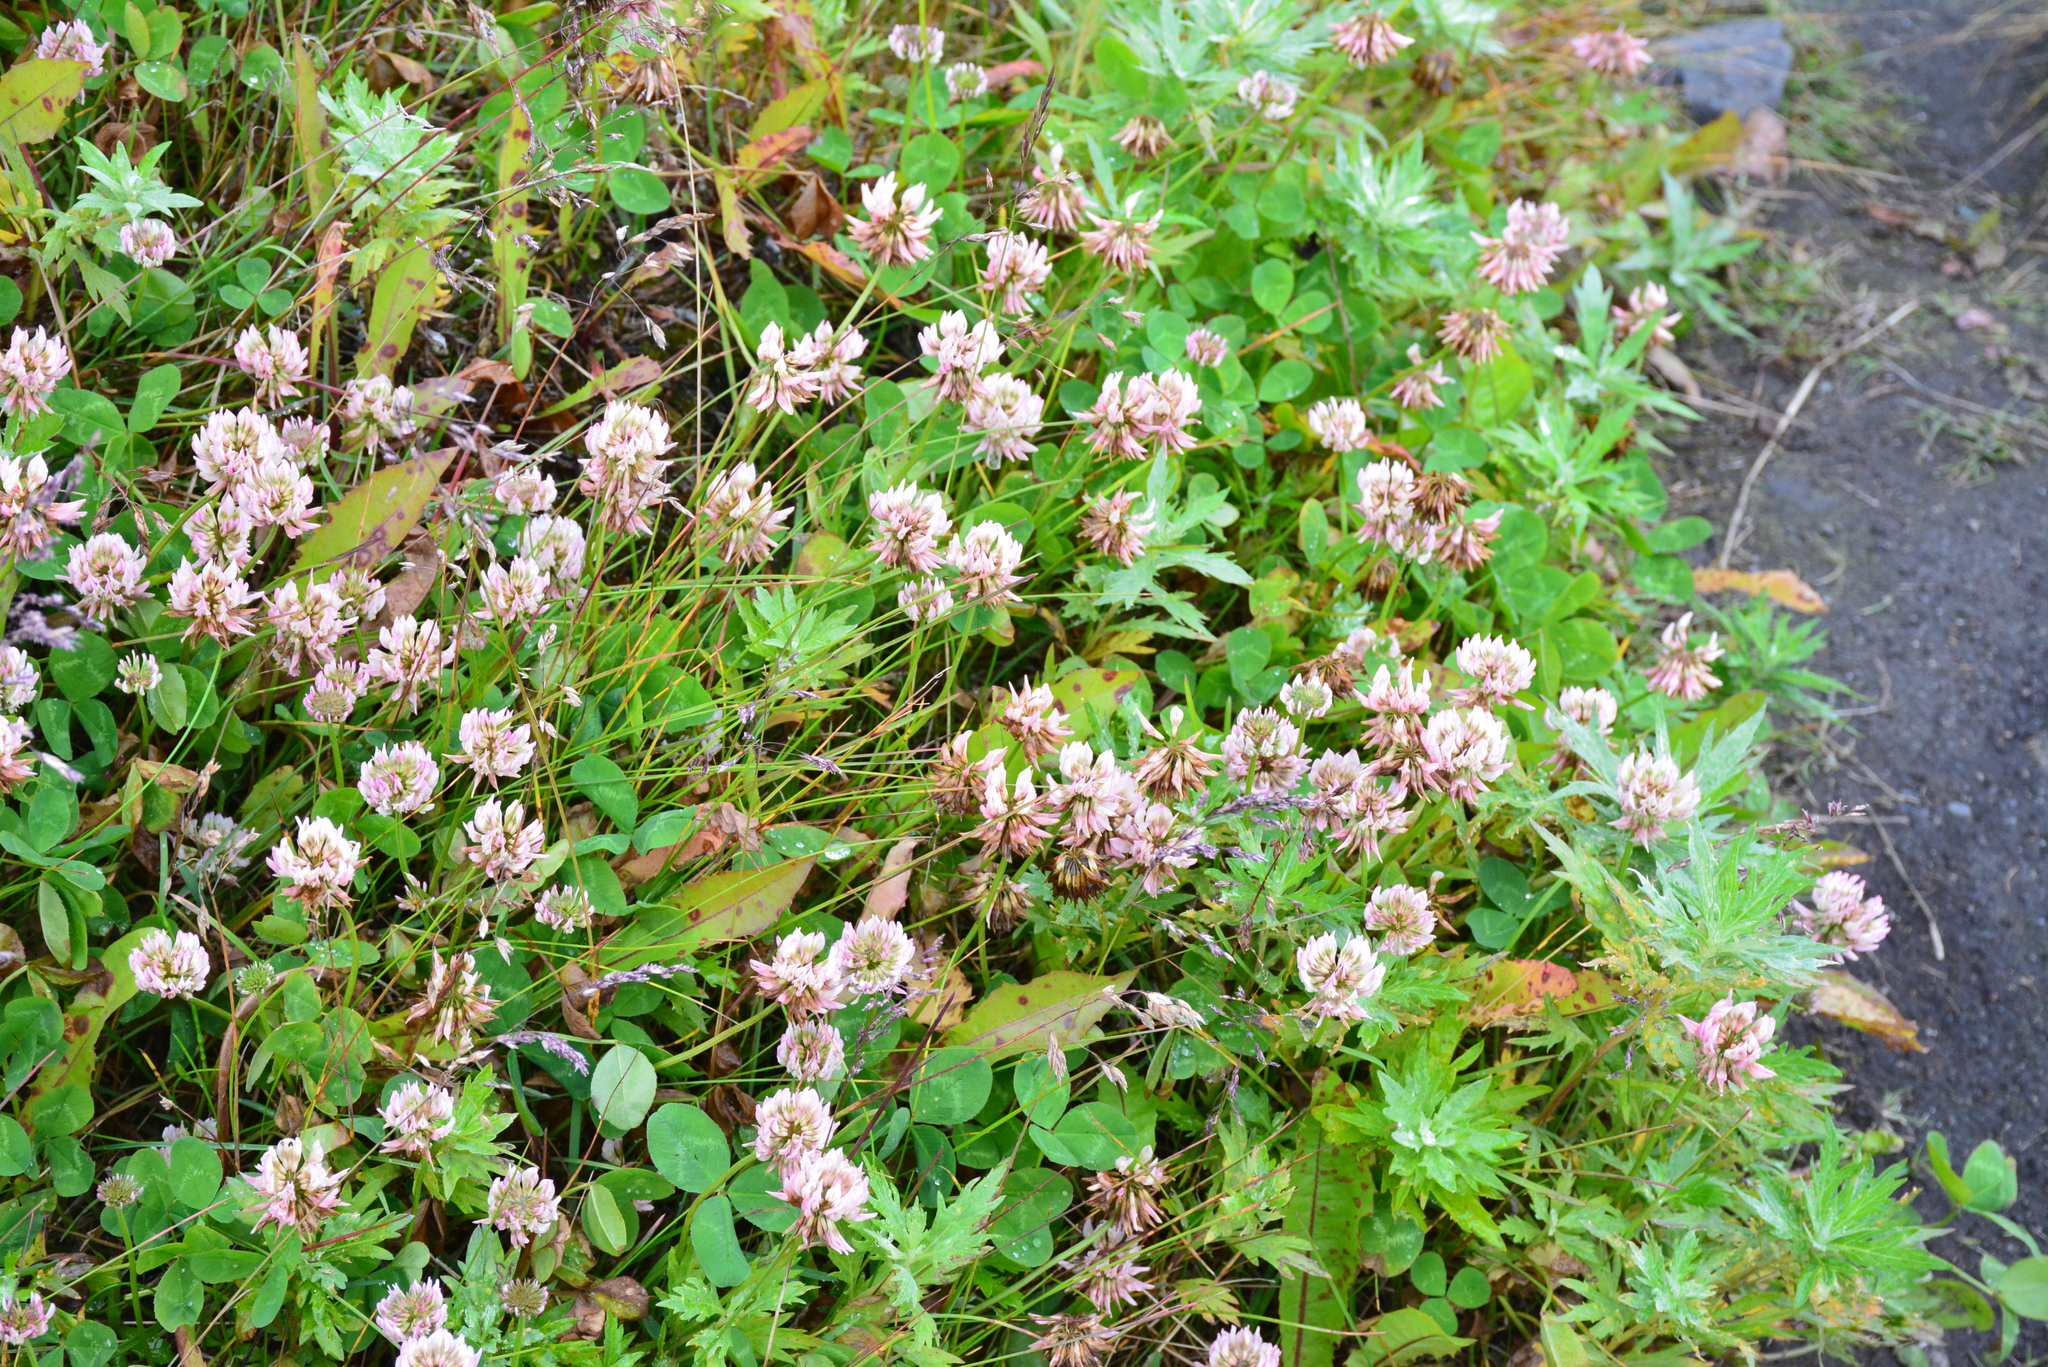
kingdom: Plantae
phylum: Tracheophyta
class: Magnoliopsida
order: Fabales
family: Fabaceae
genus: Trifolium
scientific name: Trifolium repens
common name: White clover
